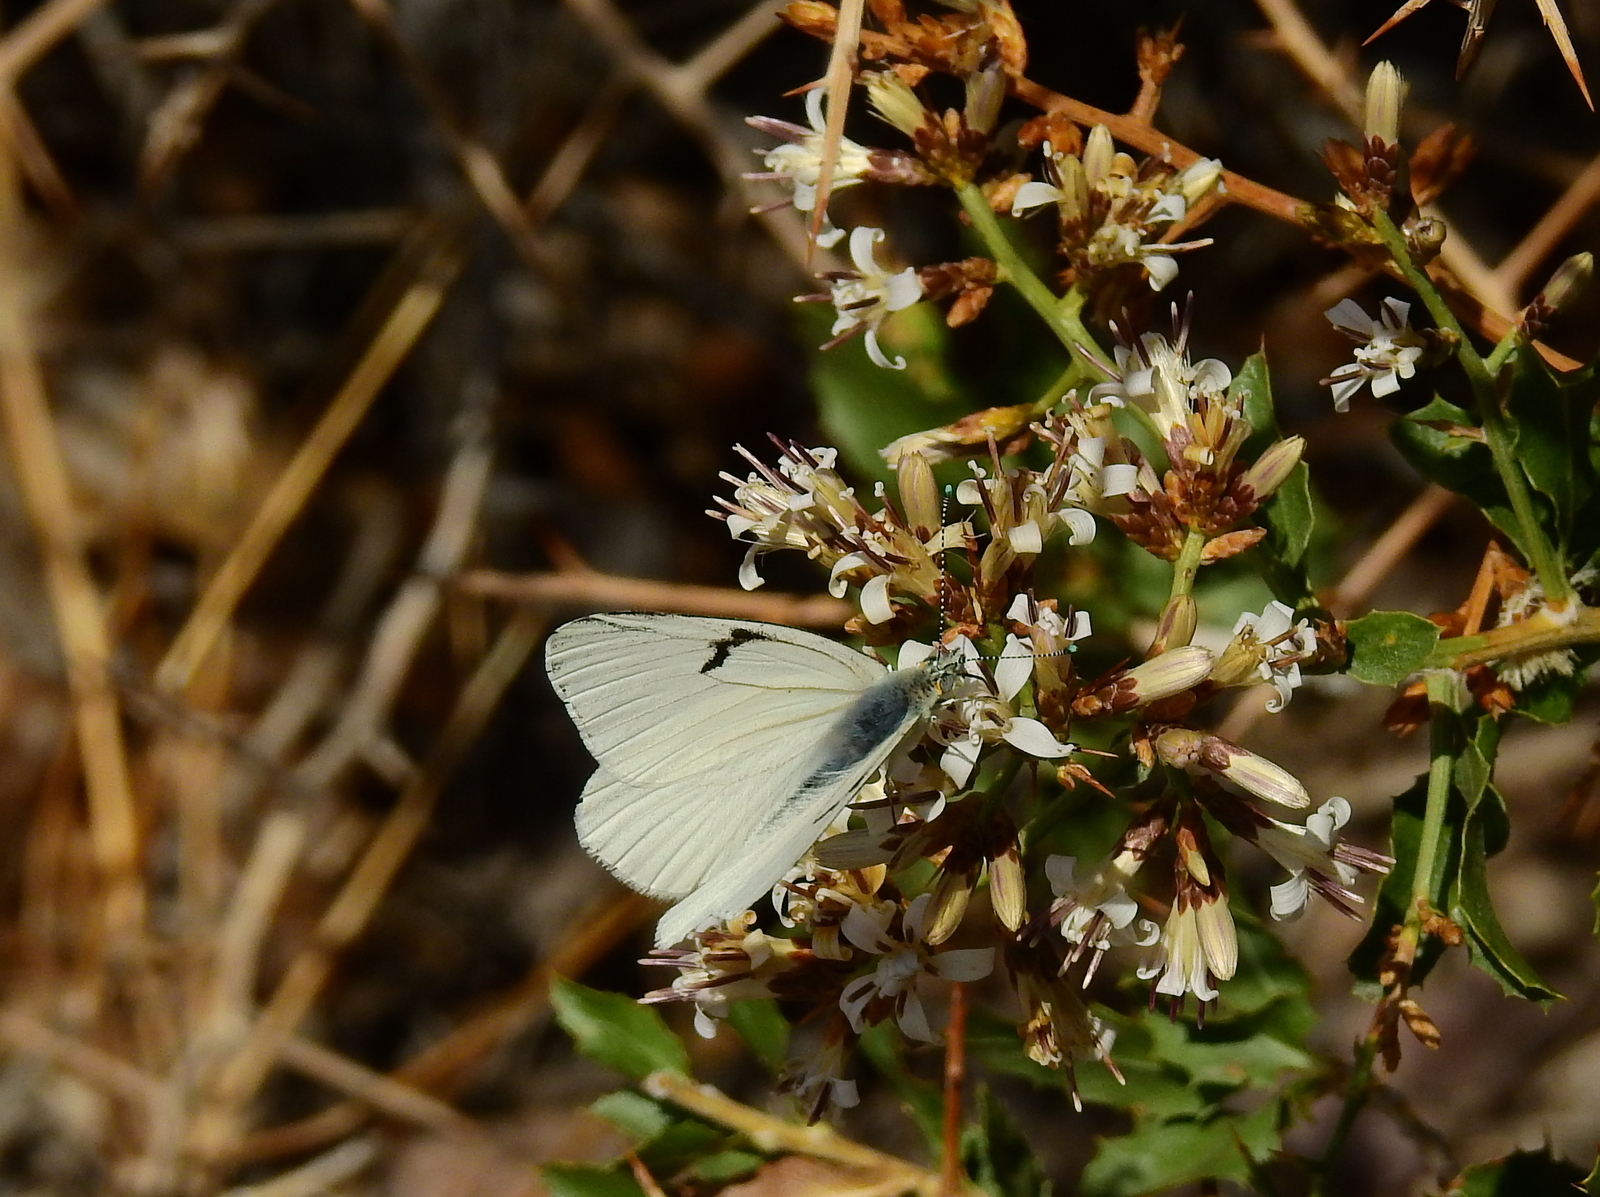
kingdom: Animalia
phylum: Arthropoda
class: Insecta
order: Lepidoptera
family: Pieridae
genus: Tatochila
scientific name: Tatochila mercedis
